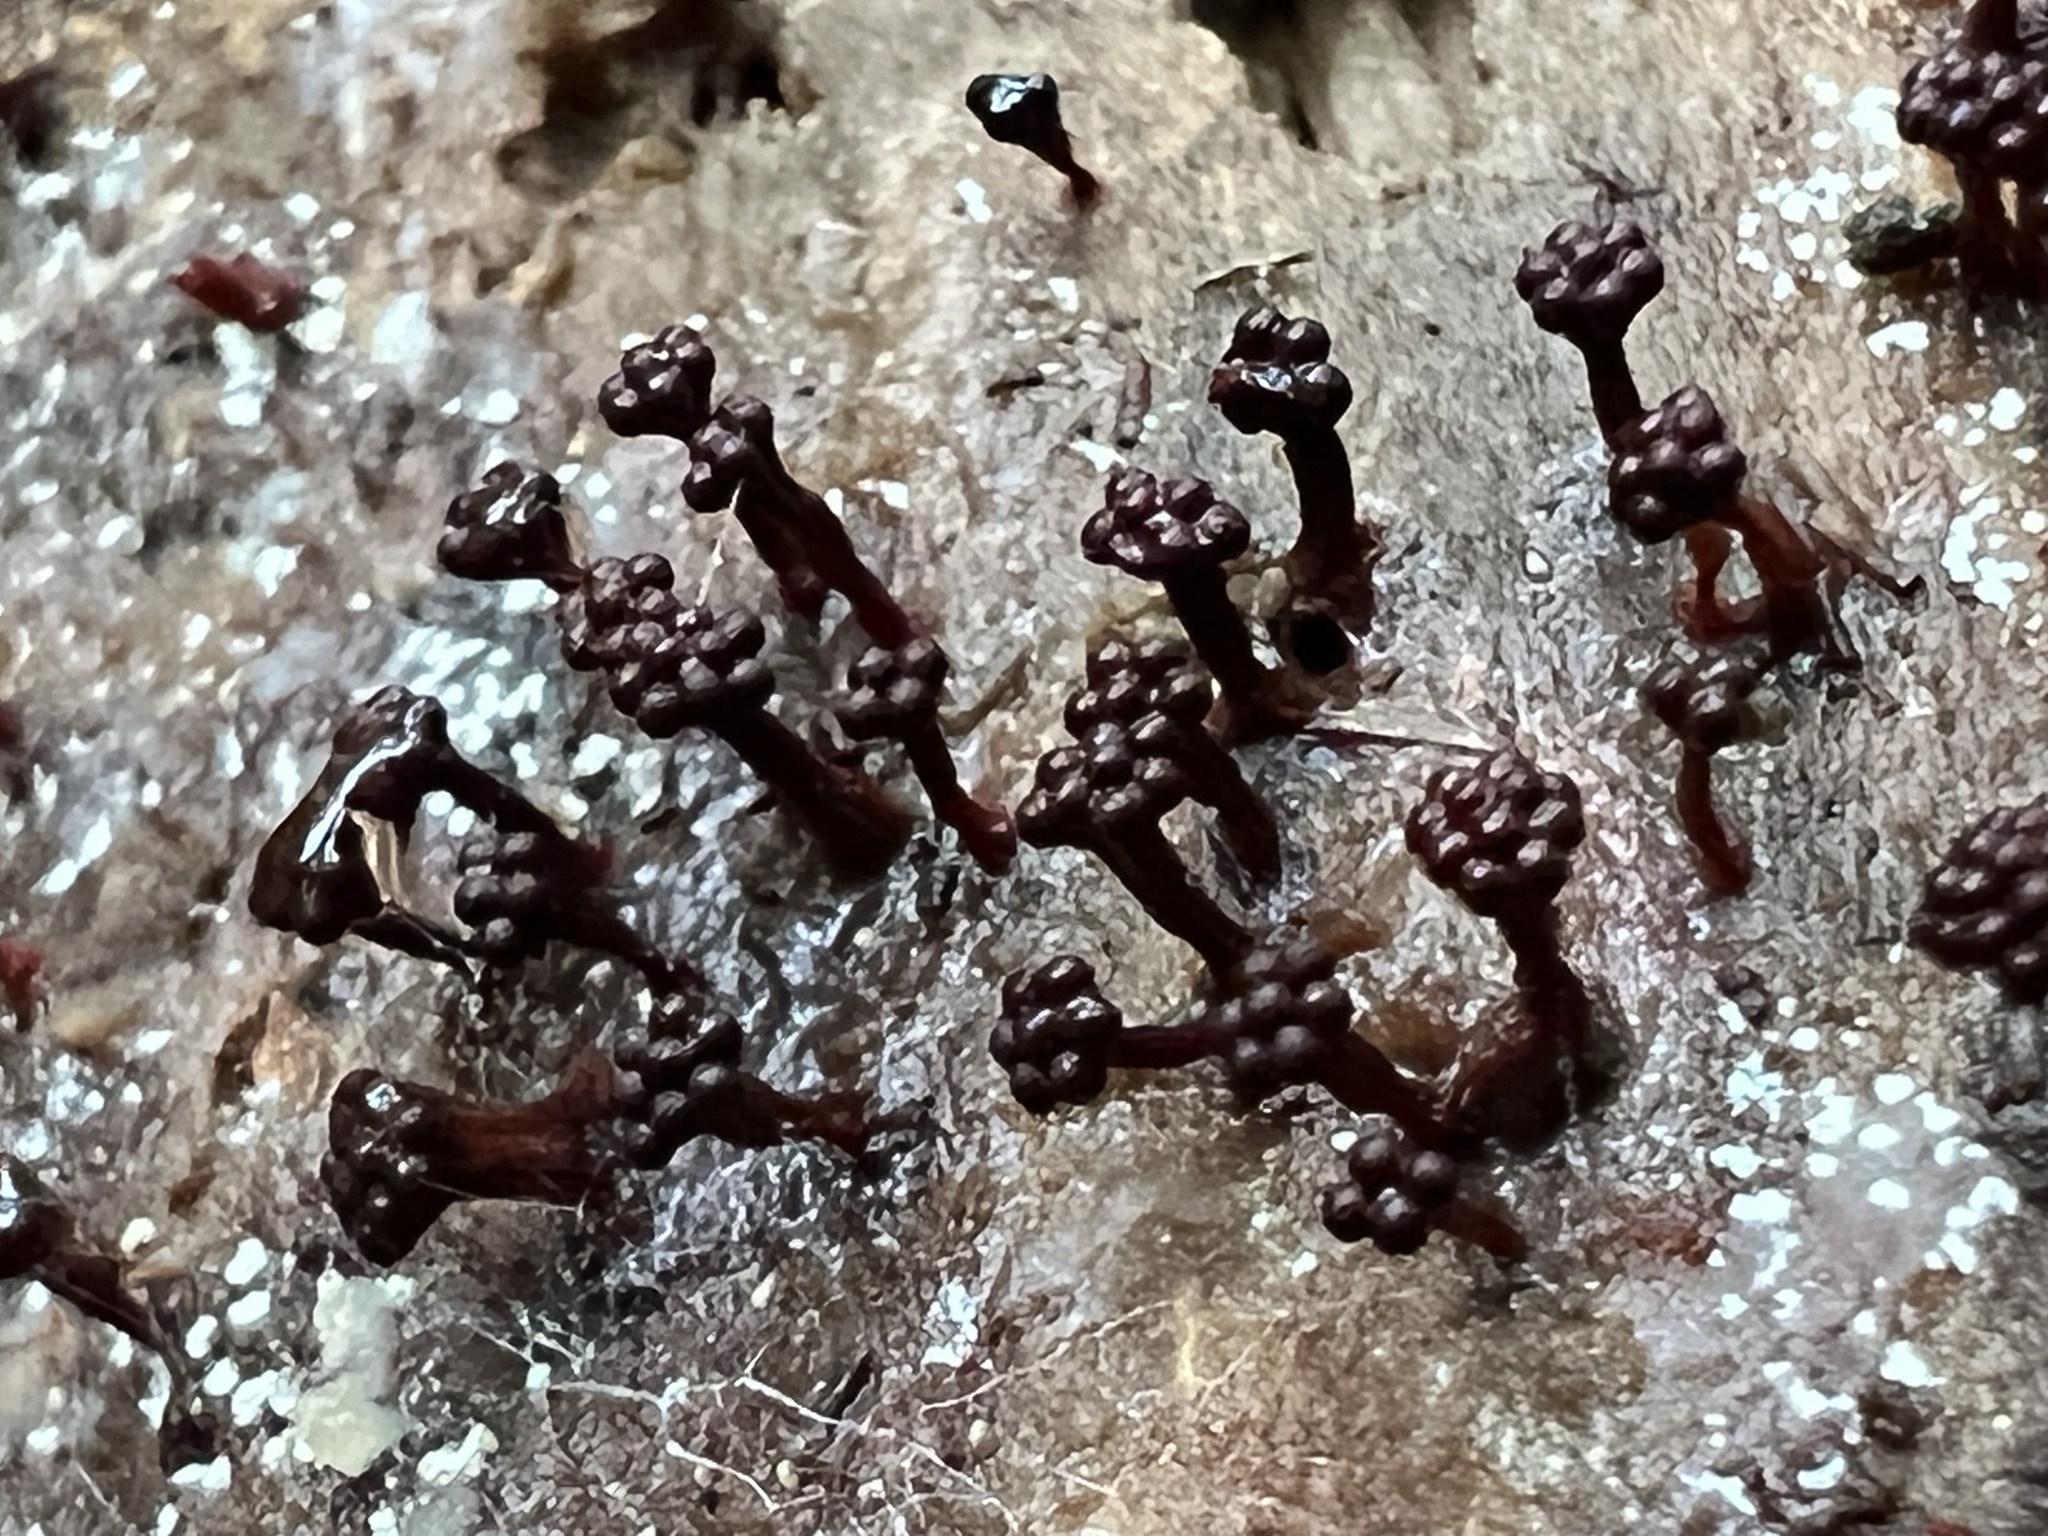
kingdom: Protozoa
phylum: Mycetozoa
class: Myxomycetes
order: Trichiales
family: Trichiaceae
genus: Metatrichia
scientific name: Metatrichia vesparia
